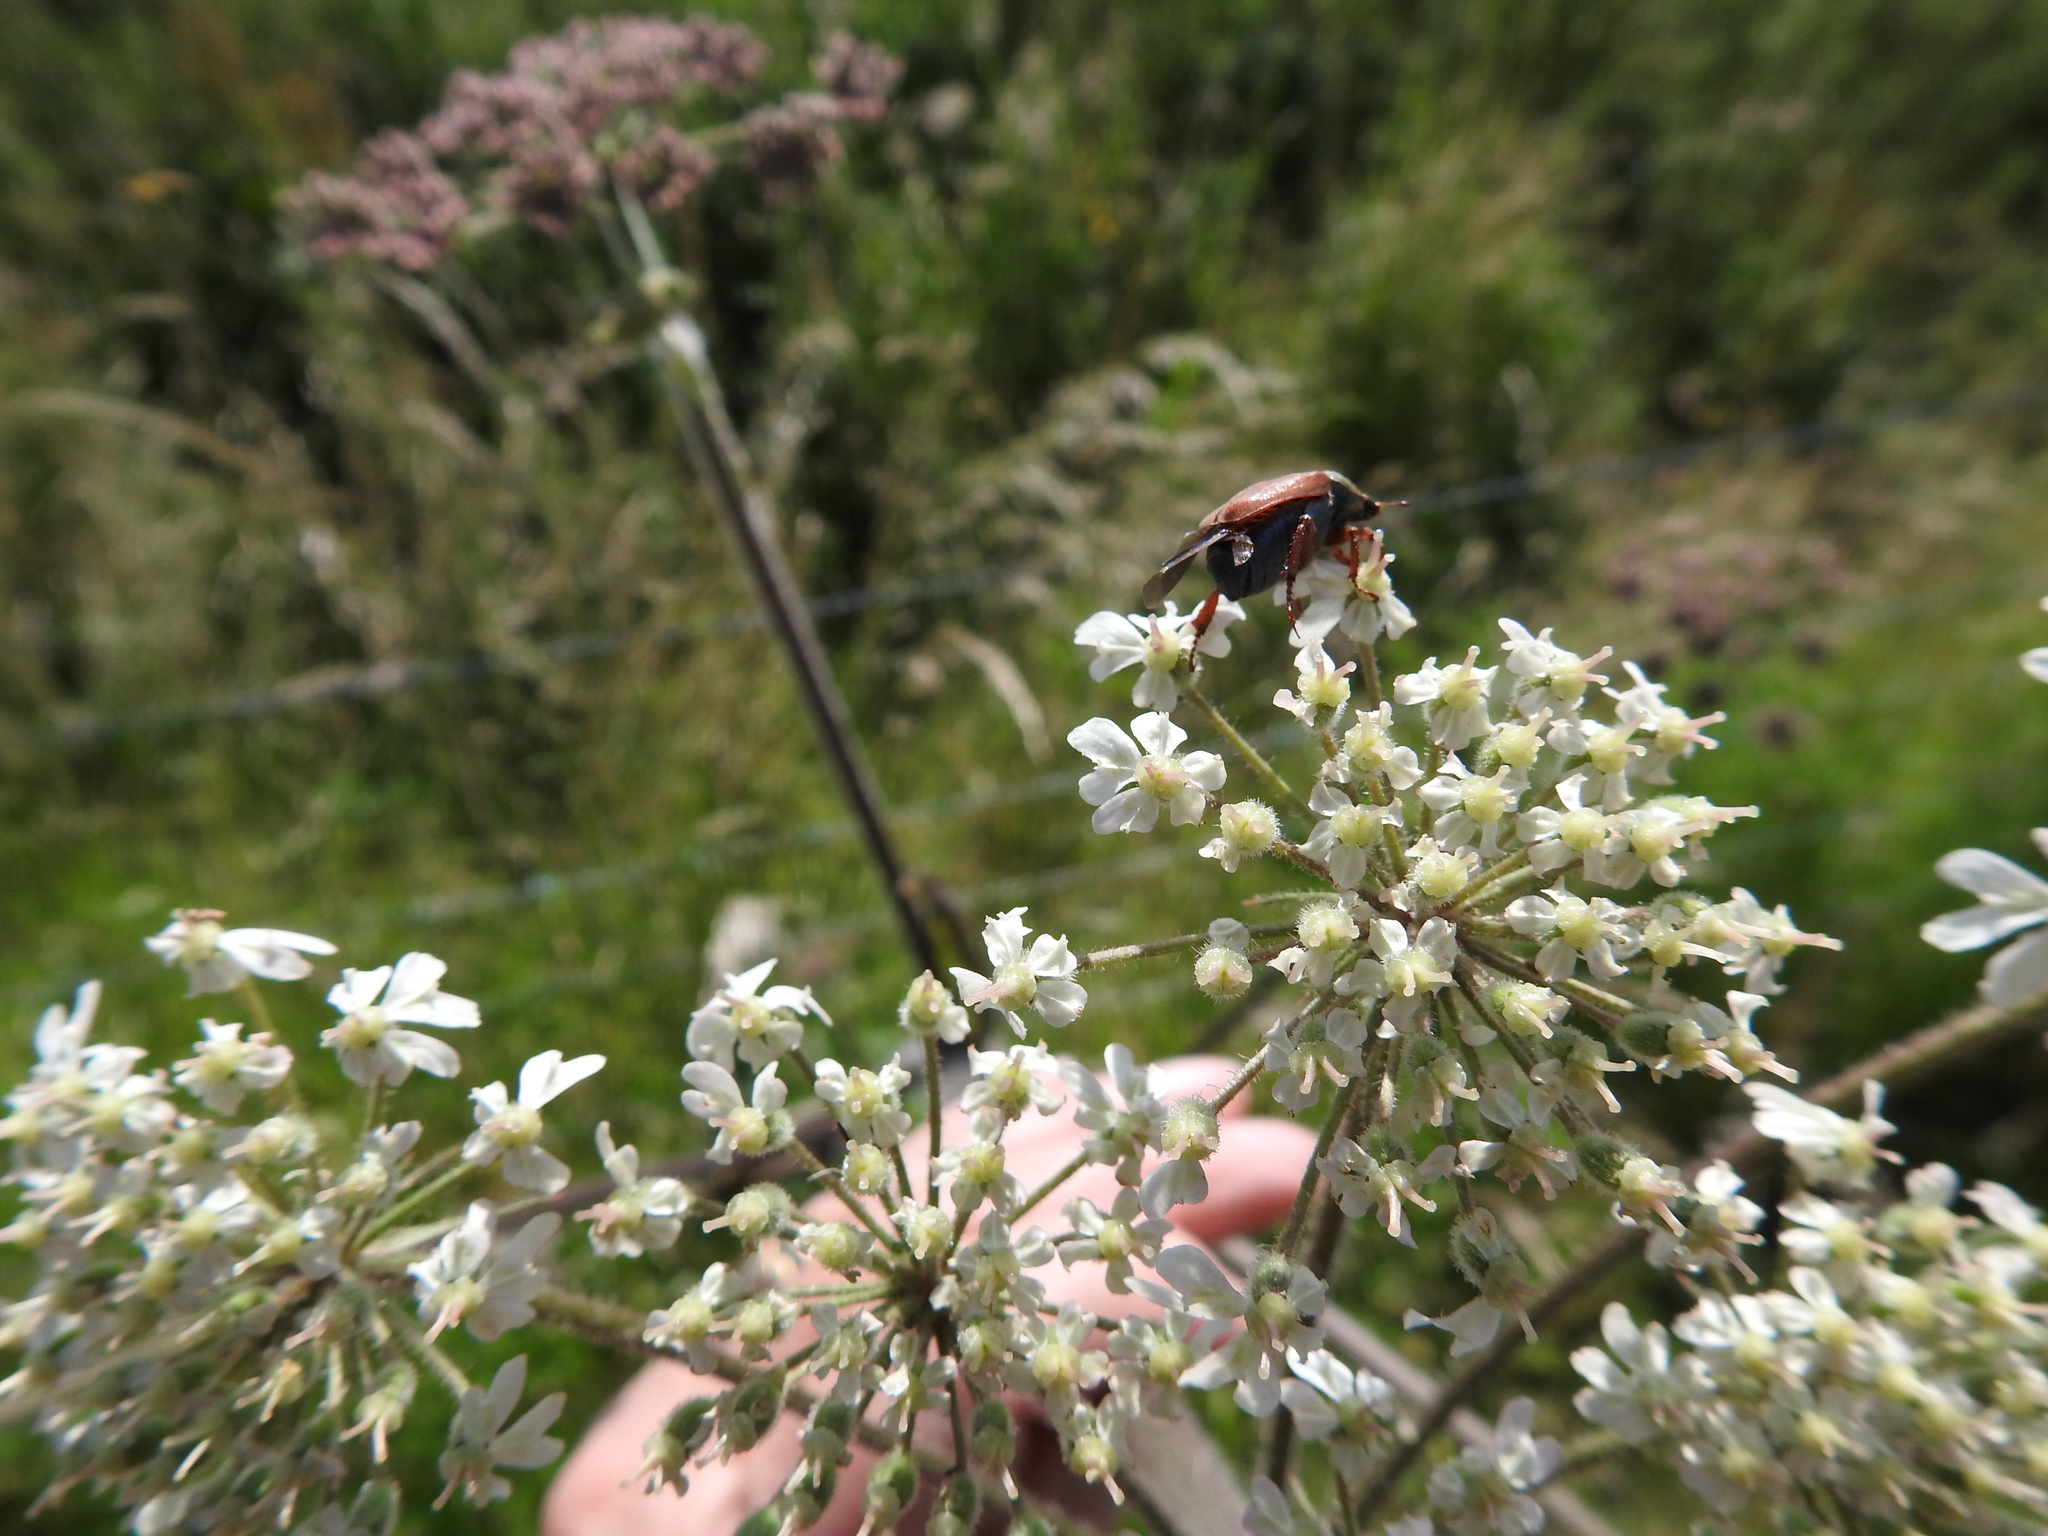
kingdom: Animalia
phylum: Arthropoda
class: Insecta
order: Coleoptera
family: Scarabaeidae
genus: Hoplia
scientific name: Hoplia philanthus
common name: Welsh chafer
